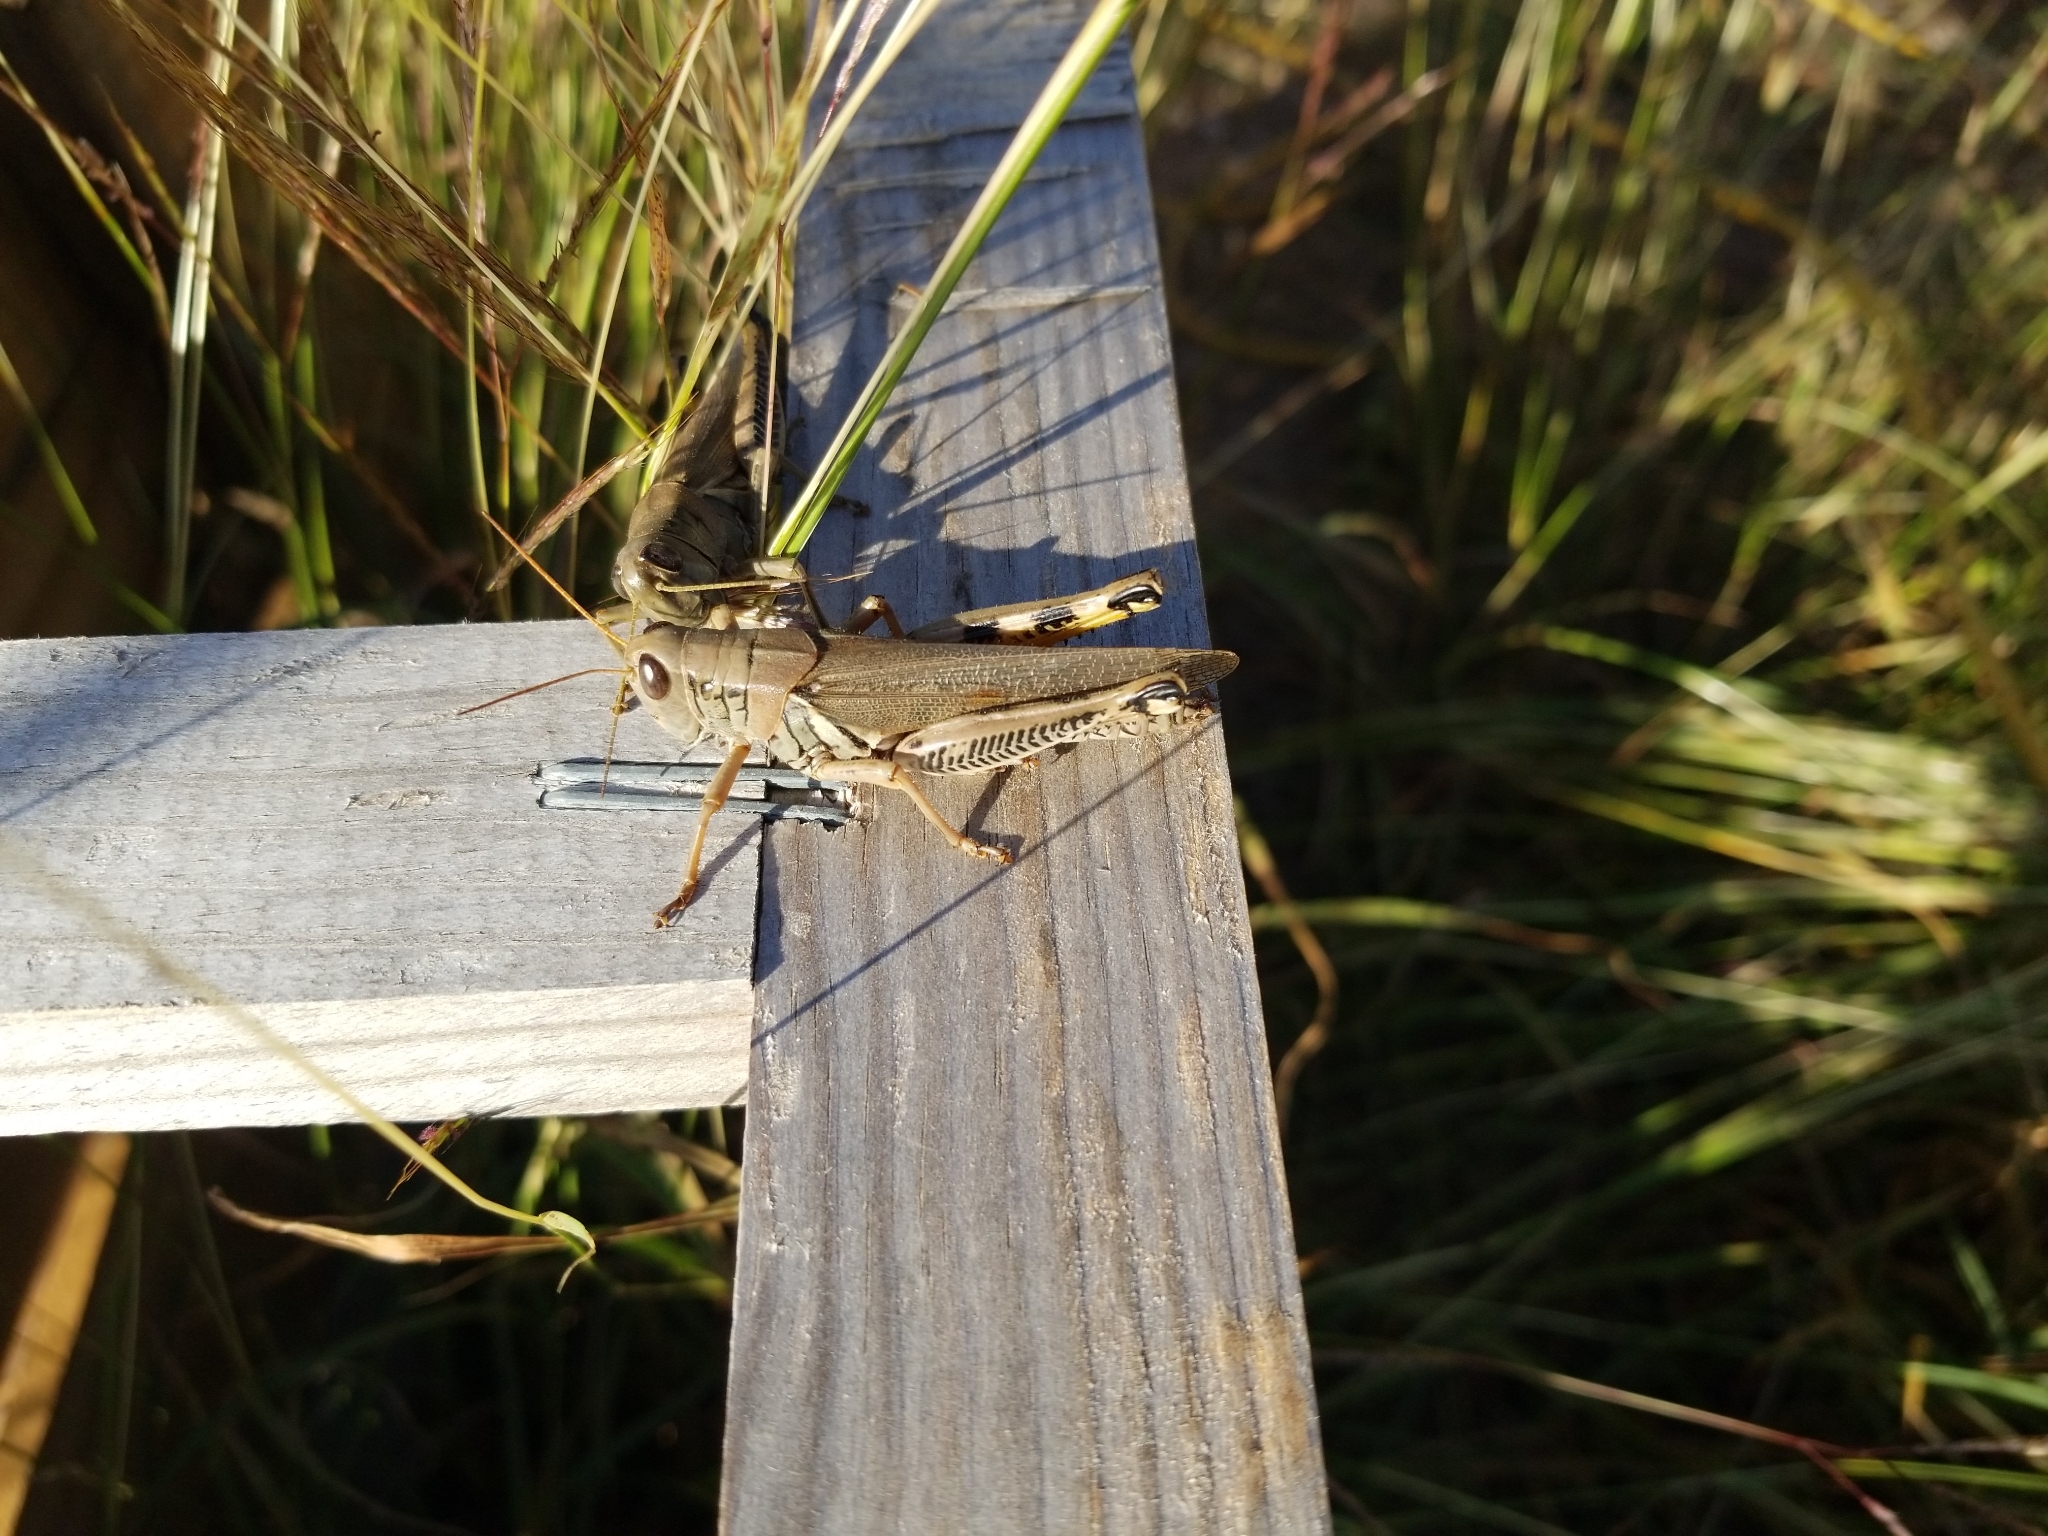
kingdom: Animalia
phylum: Arthropoda
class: Insecta
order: Orthoptera
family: Acrididae
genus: Melanoplus
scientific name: Melanoplus differentialis
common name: Differential grasshopper
